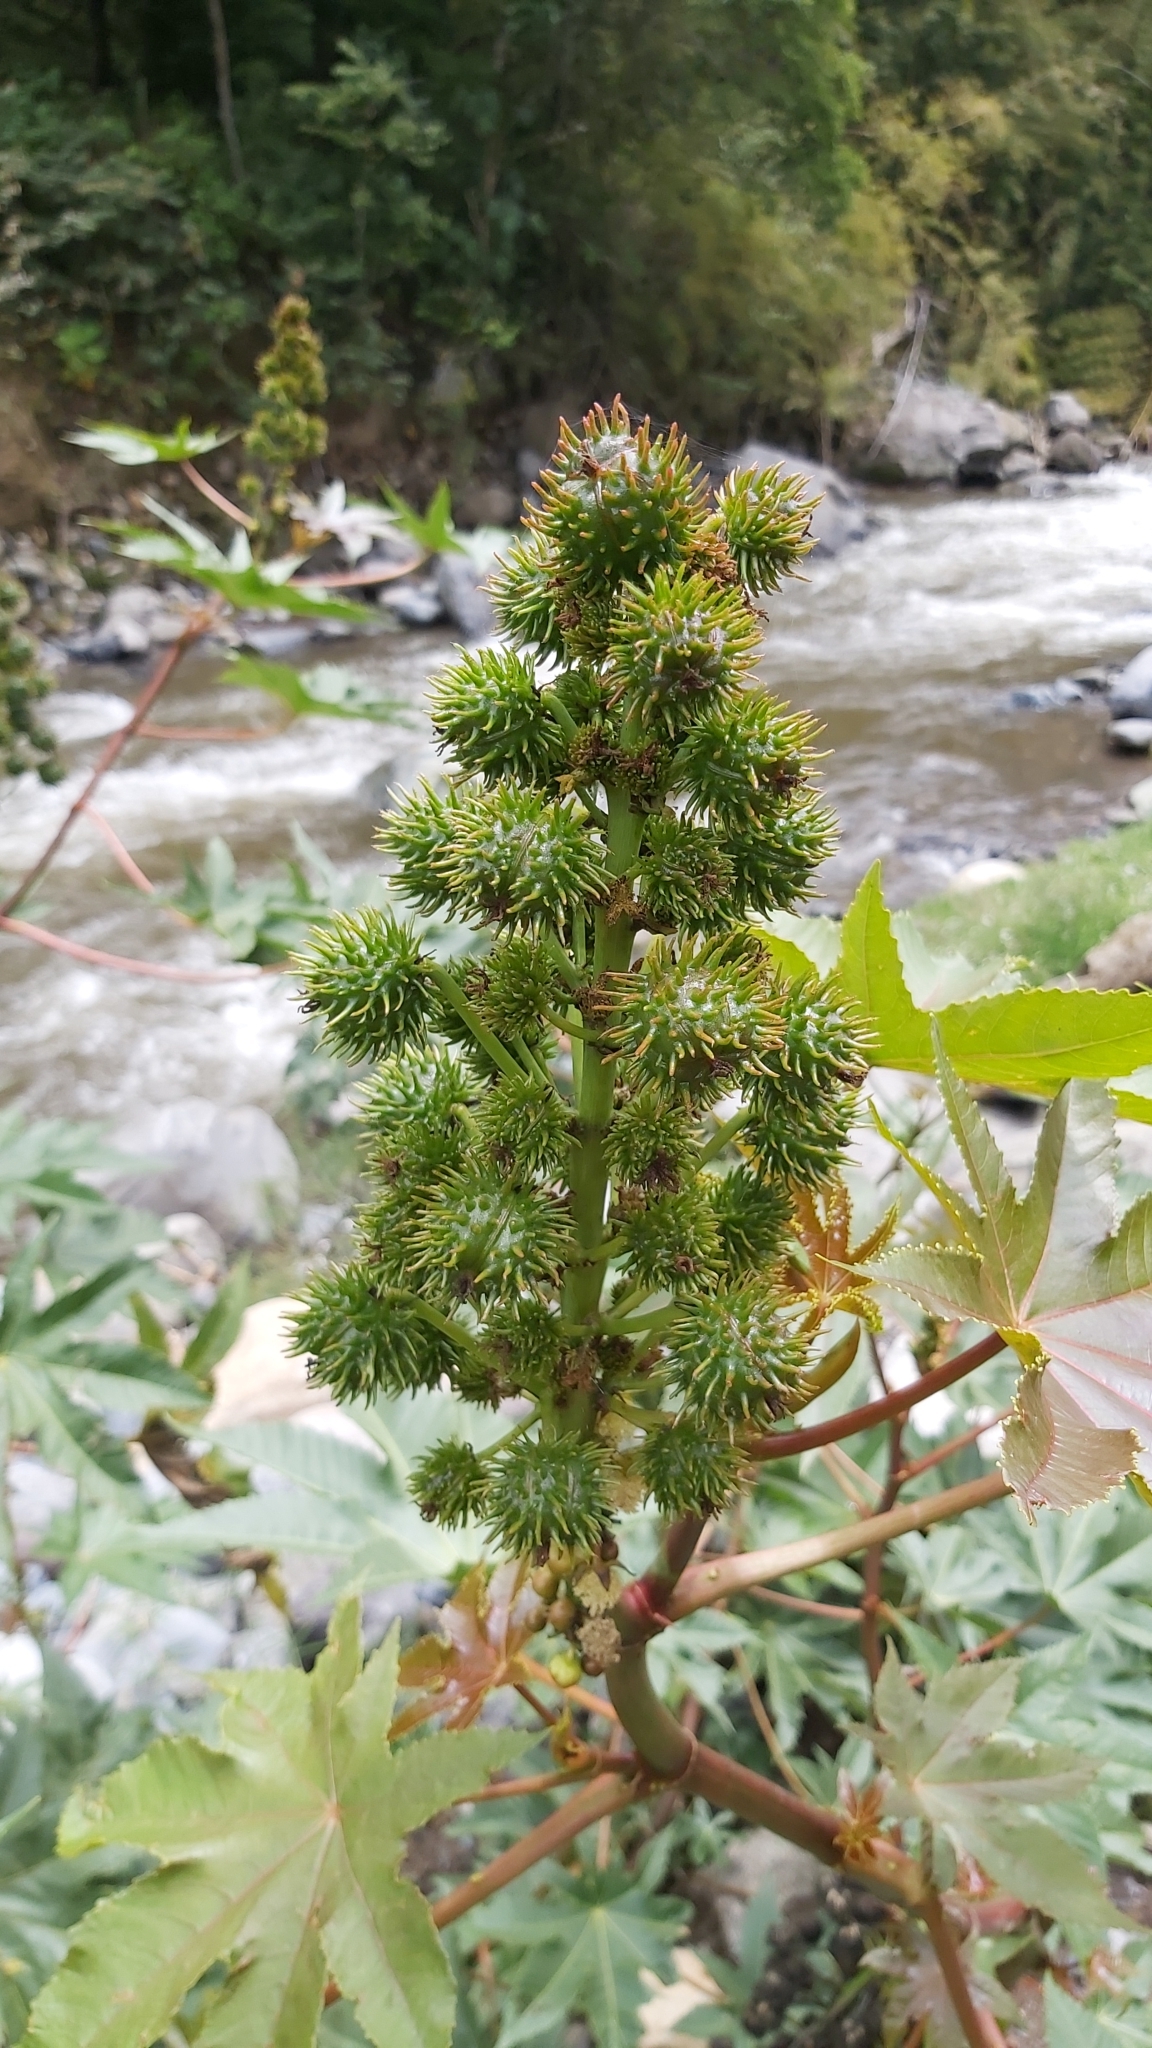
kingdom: Plantae
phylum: Tracheophyta
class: Magnoliopsida
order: Malpighiales
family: Euphorbiaceae
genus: Ricinus
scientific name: Ricinus communis
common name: Castor-oil-plant
